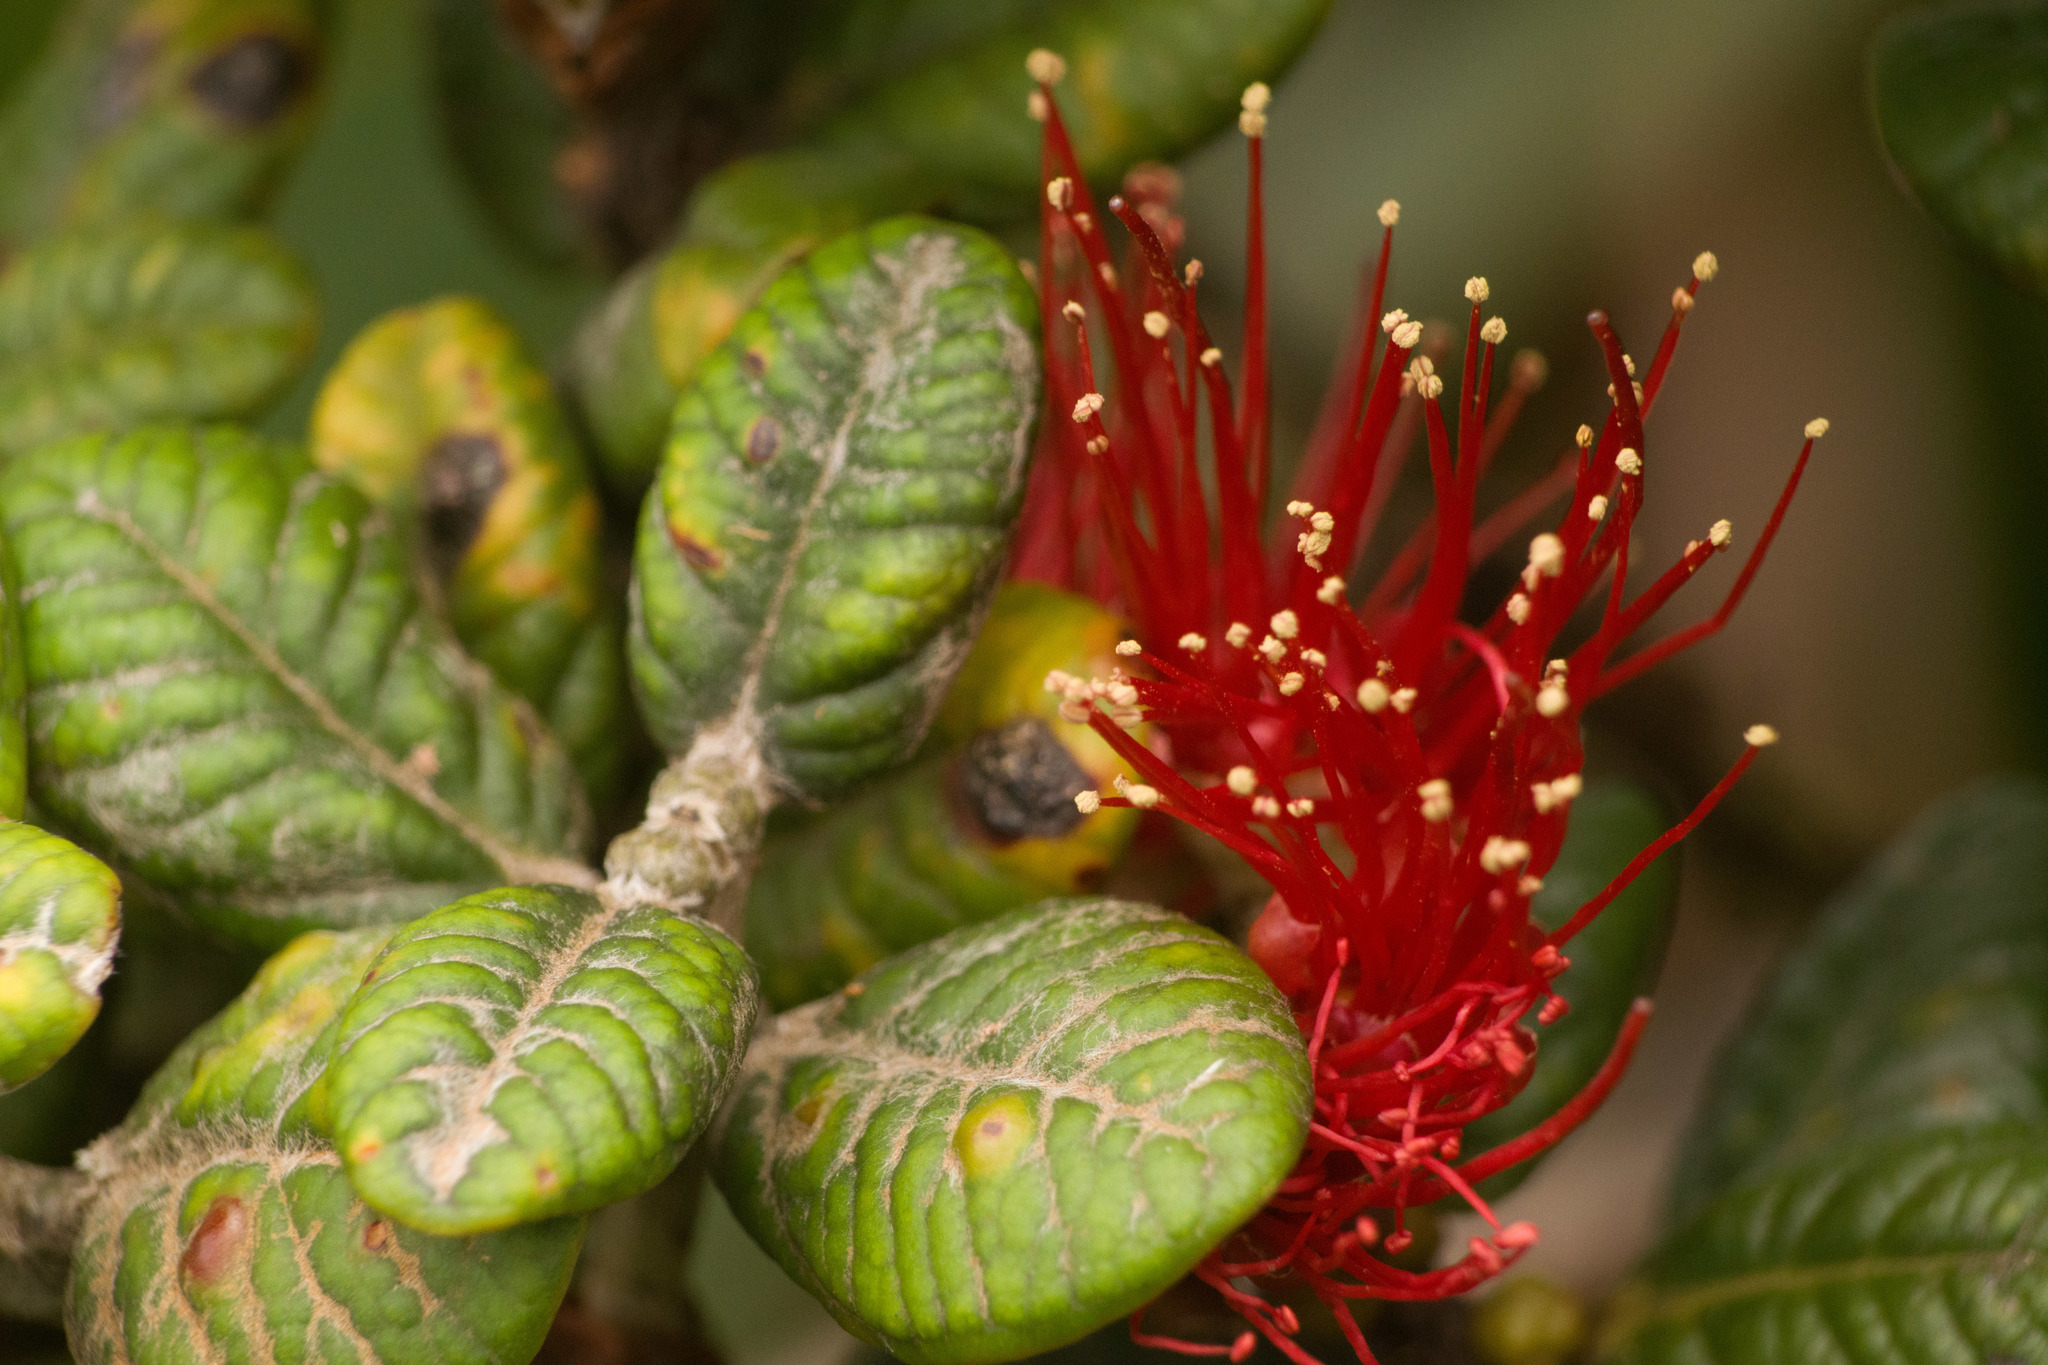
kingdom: Plantae
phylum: Tracheophyta
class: Magnoliopsida
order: Myrtales
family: Myrtaceae
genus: Metrosideros
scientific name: Metrosideros rugosa
